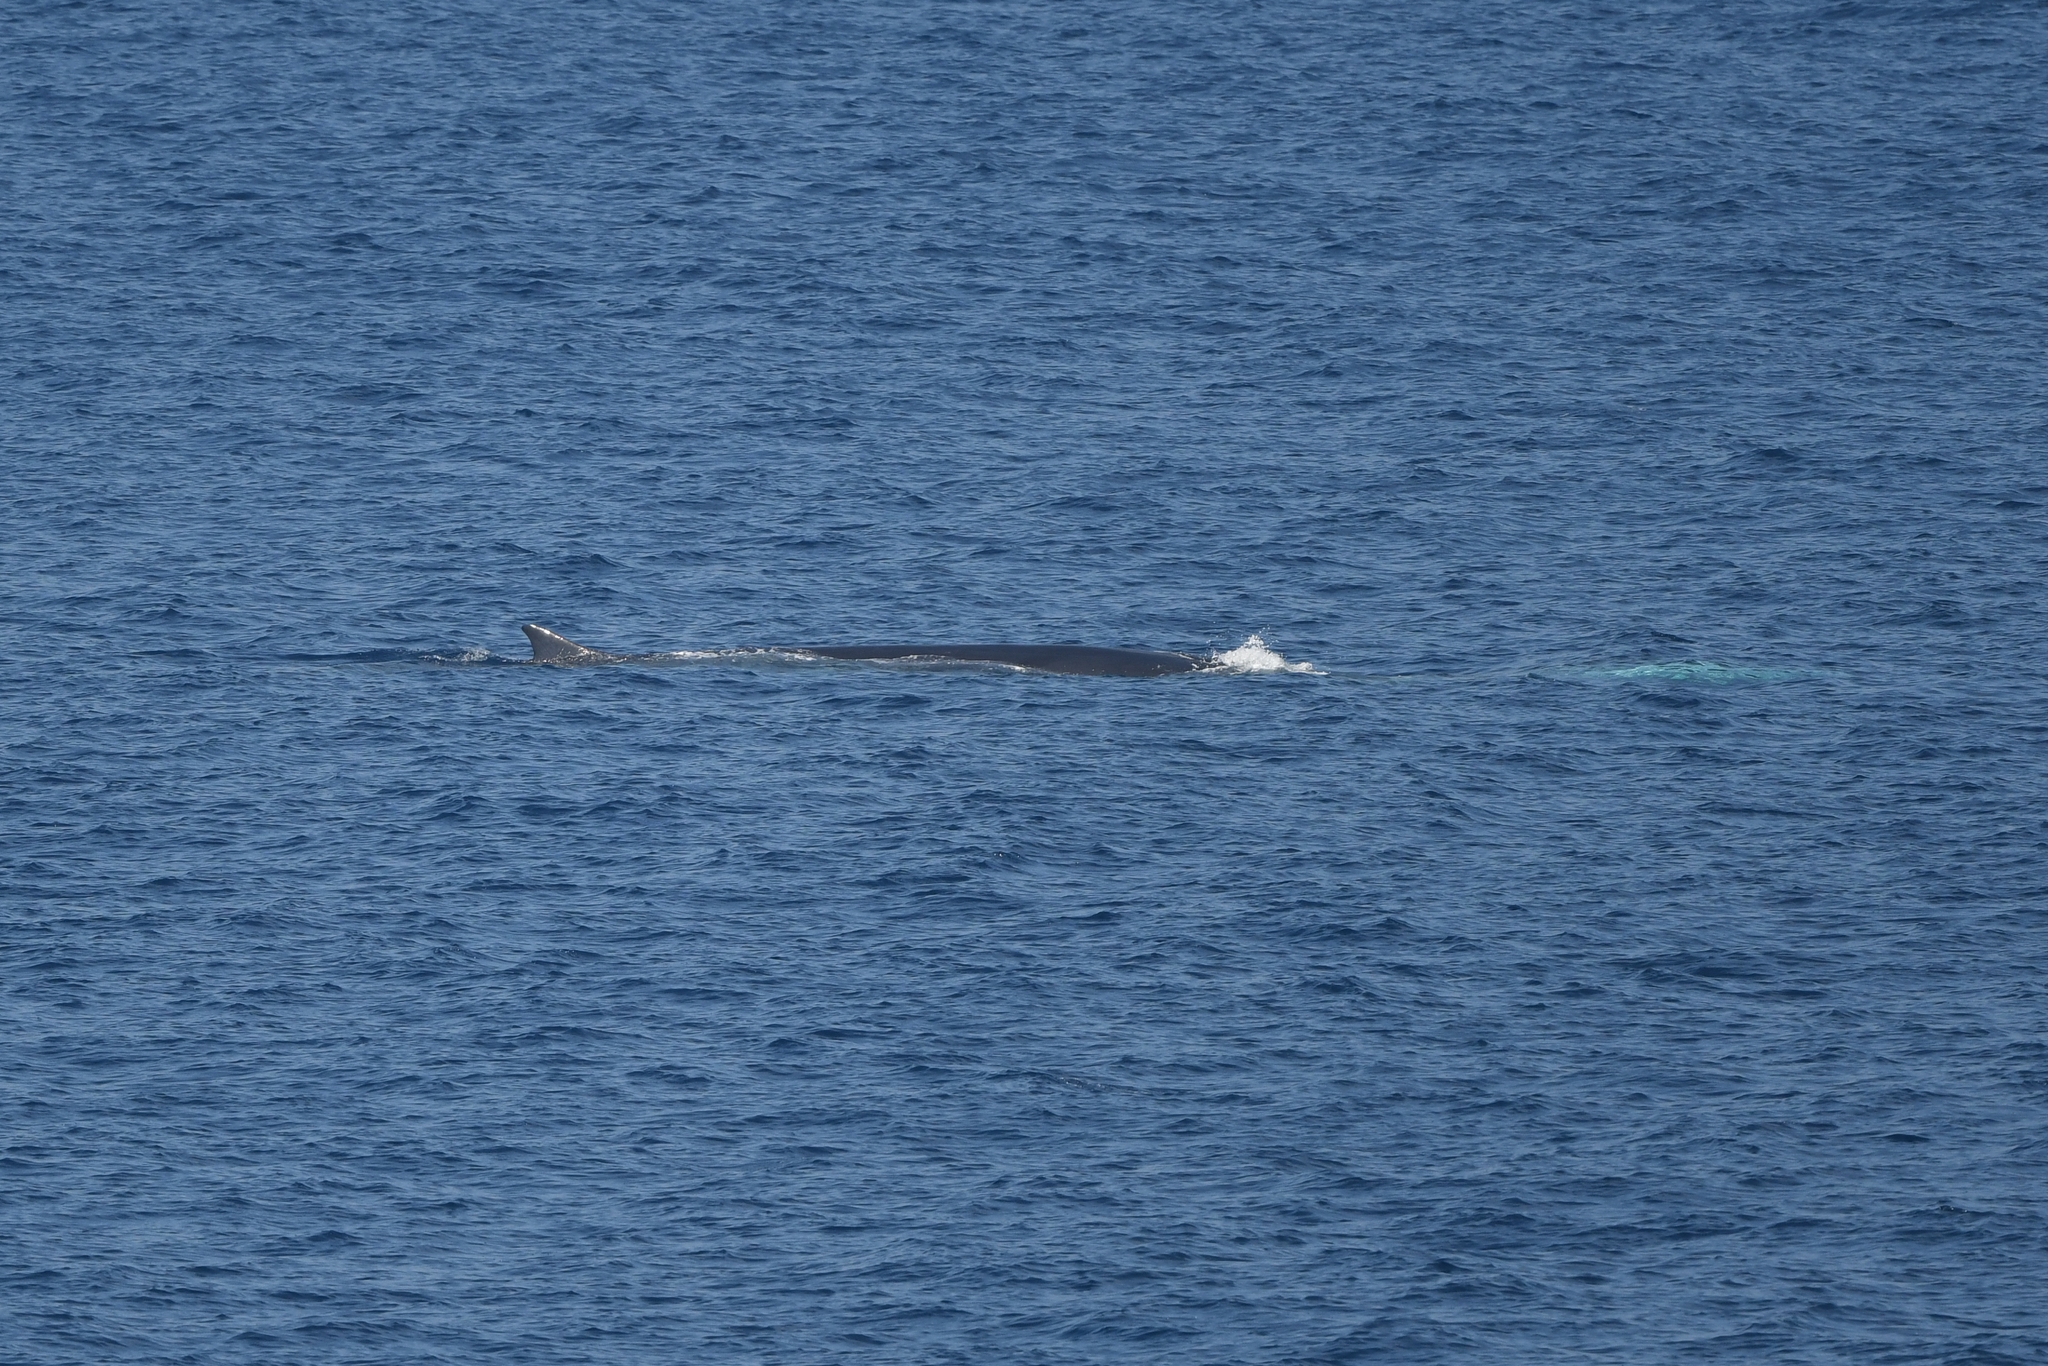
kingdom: Animalia
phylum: Chordata
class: Mammalia
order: Cetacea
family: Balaenopteridae
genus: Balaenoptera
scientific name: Balaenoptera physalus
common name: Fin whale
